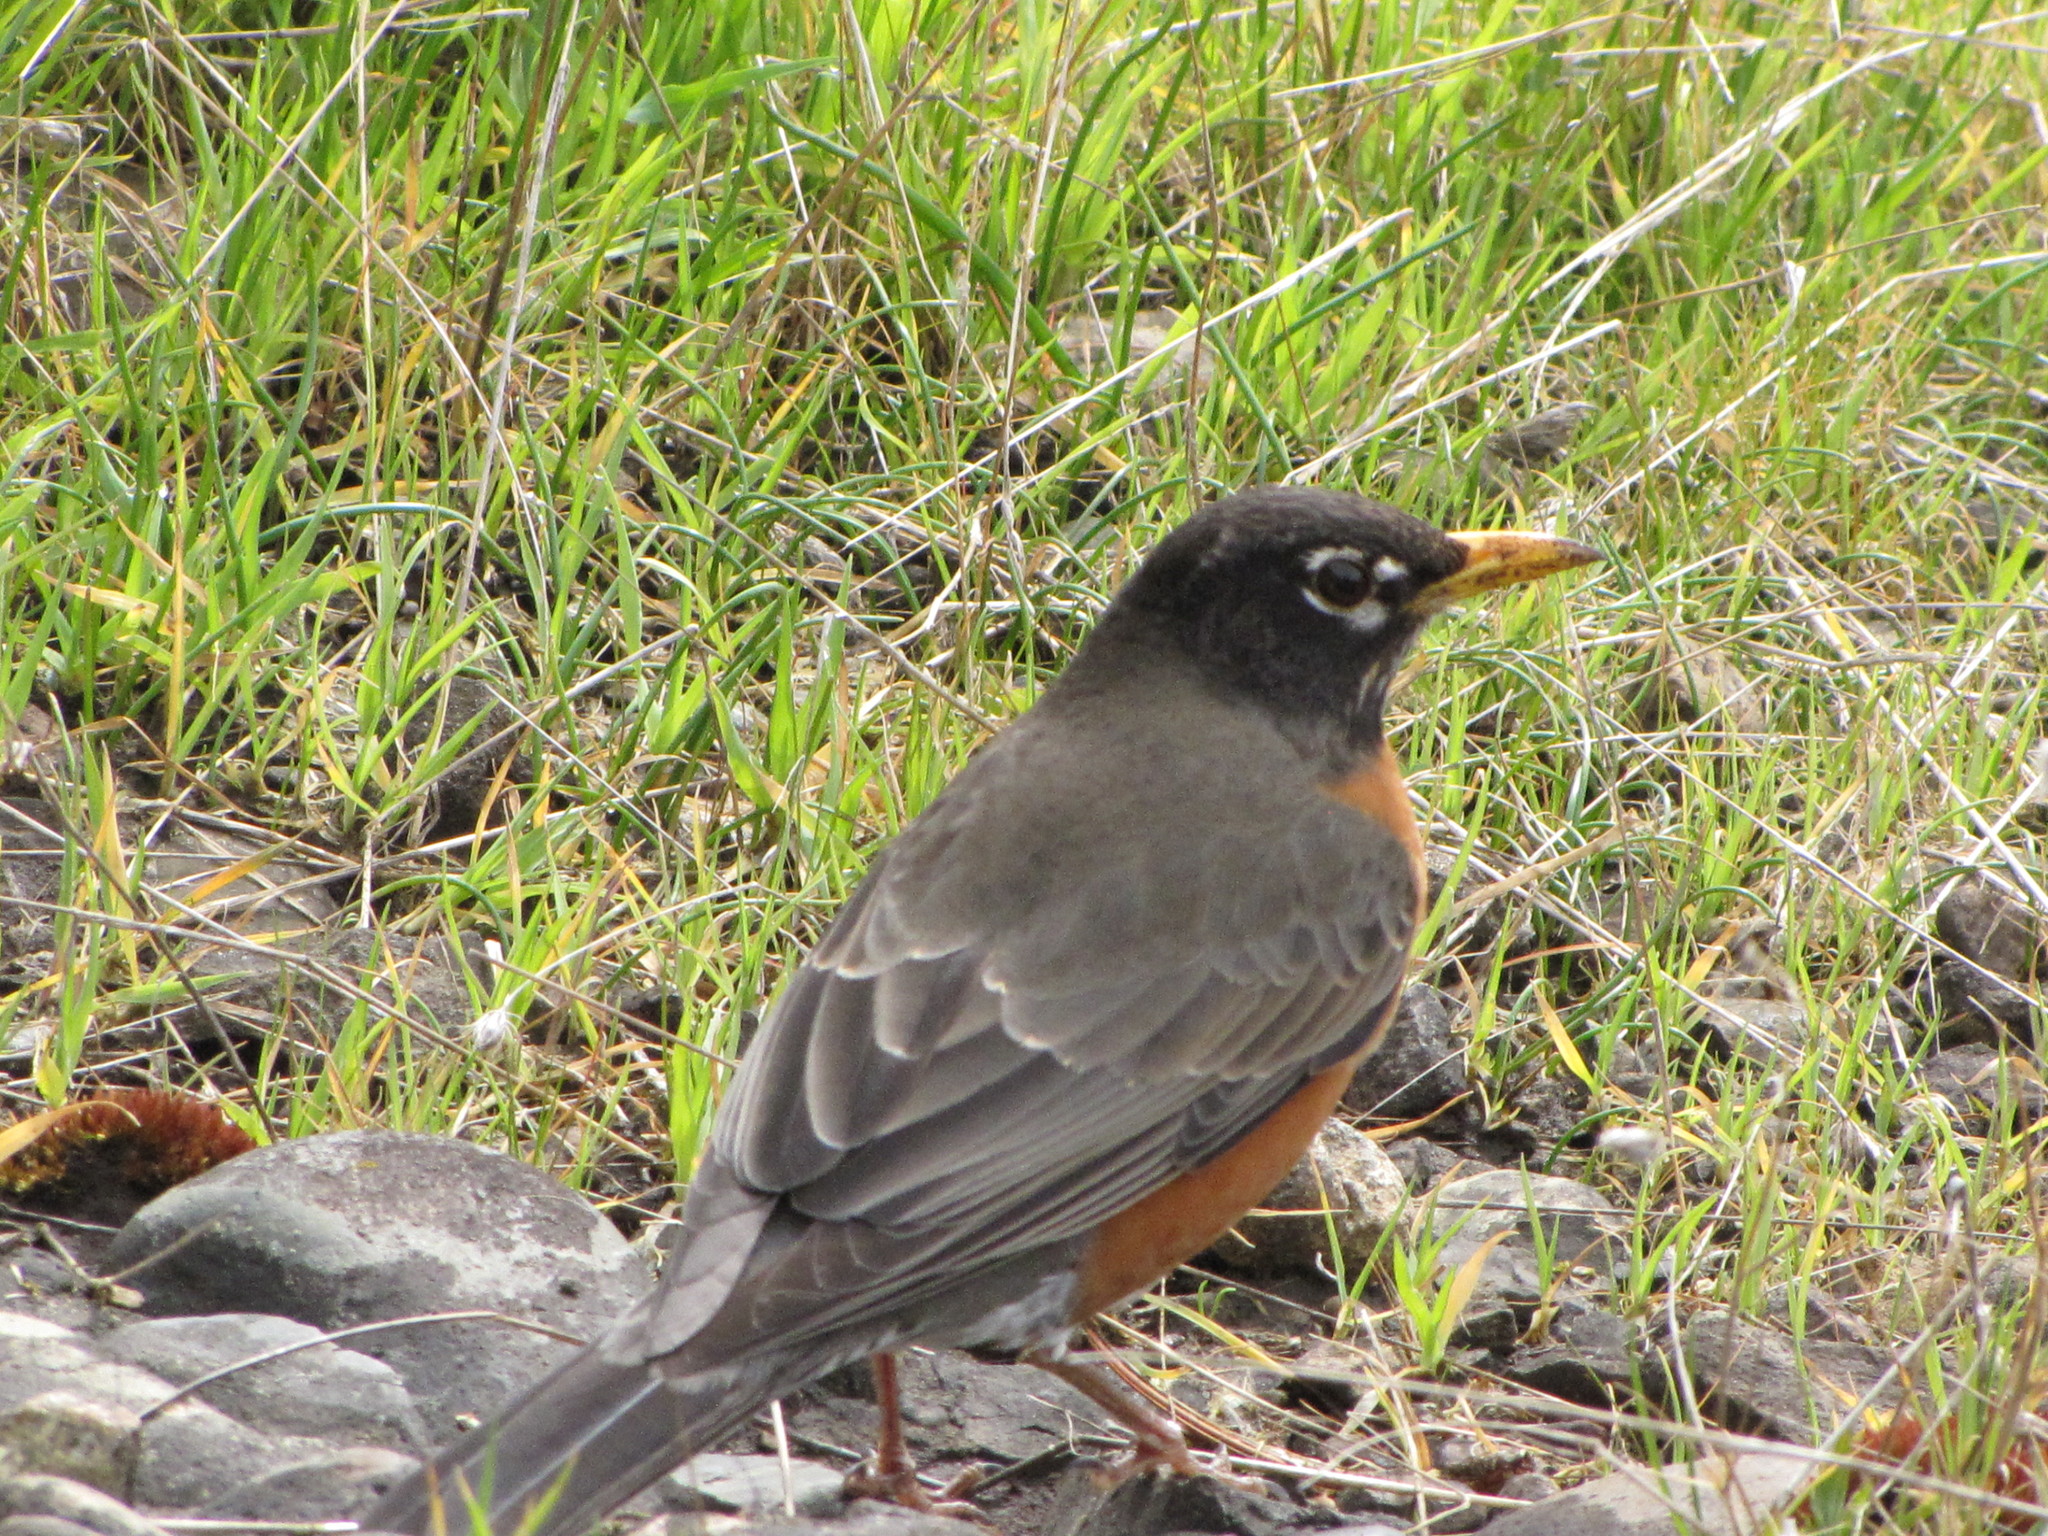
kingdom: Animalia
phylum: Chordata
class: Aves
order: Passeriformes
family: Turdidae
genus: Turdus
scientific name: Turdus migratorius
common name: American robin
